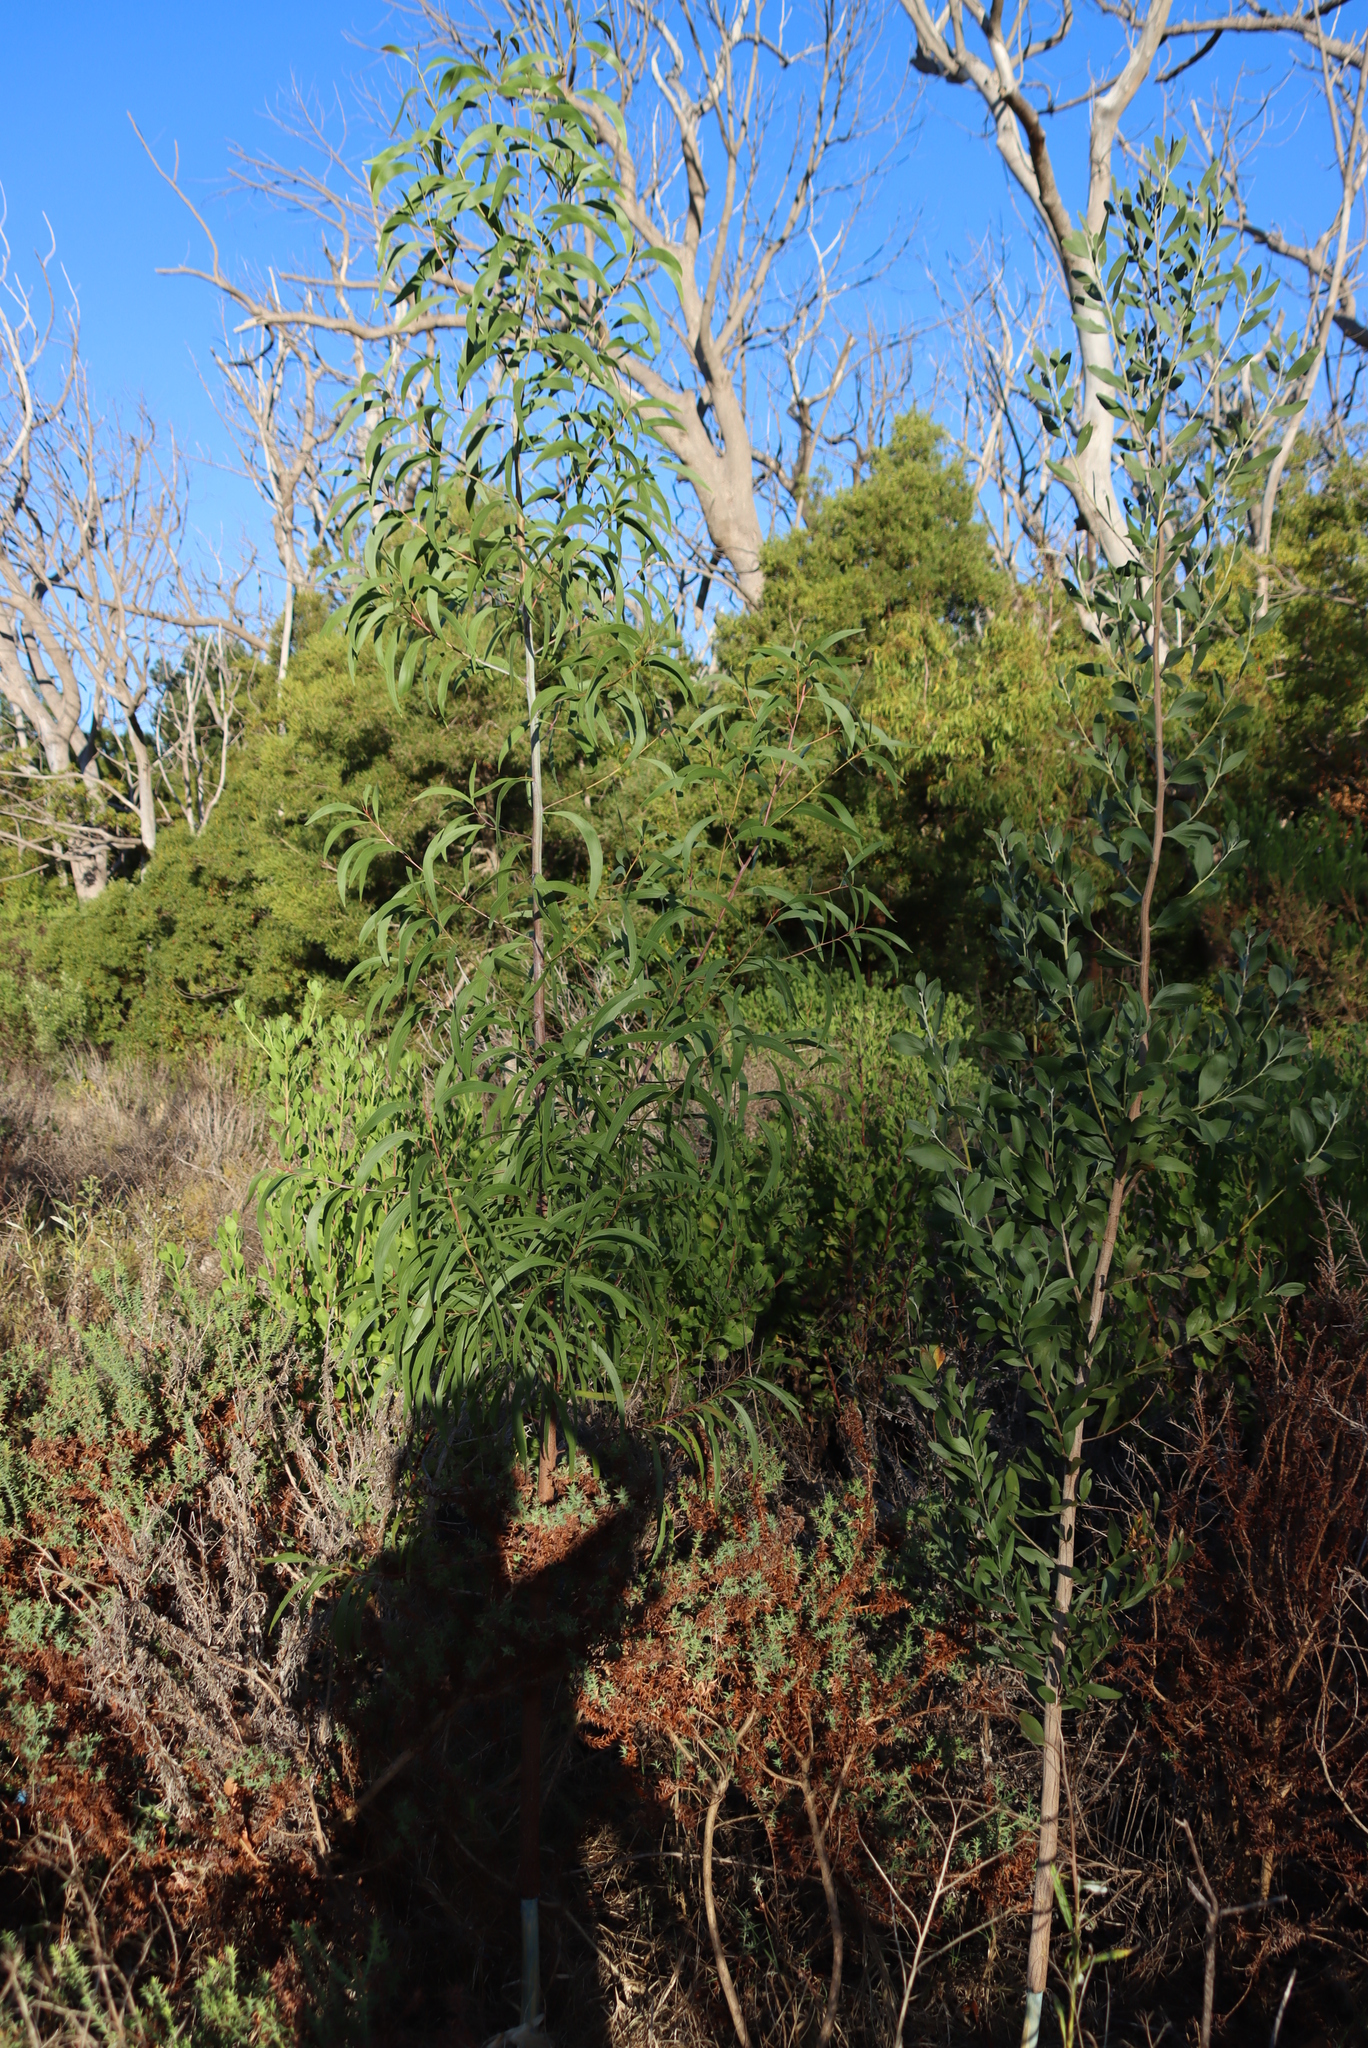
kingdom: Plantae
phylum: Tracheophyta
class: Magnoliopsida
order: Fabales
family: Fabaceae
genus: Acacia
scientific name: Acacia implexa
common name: Black wattle
